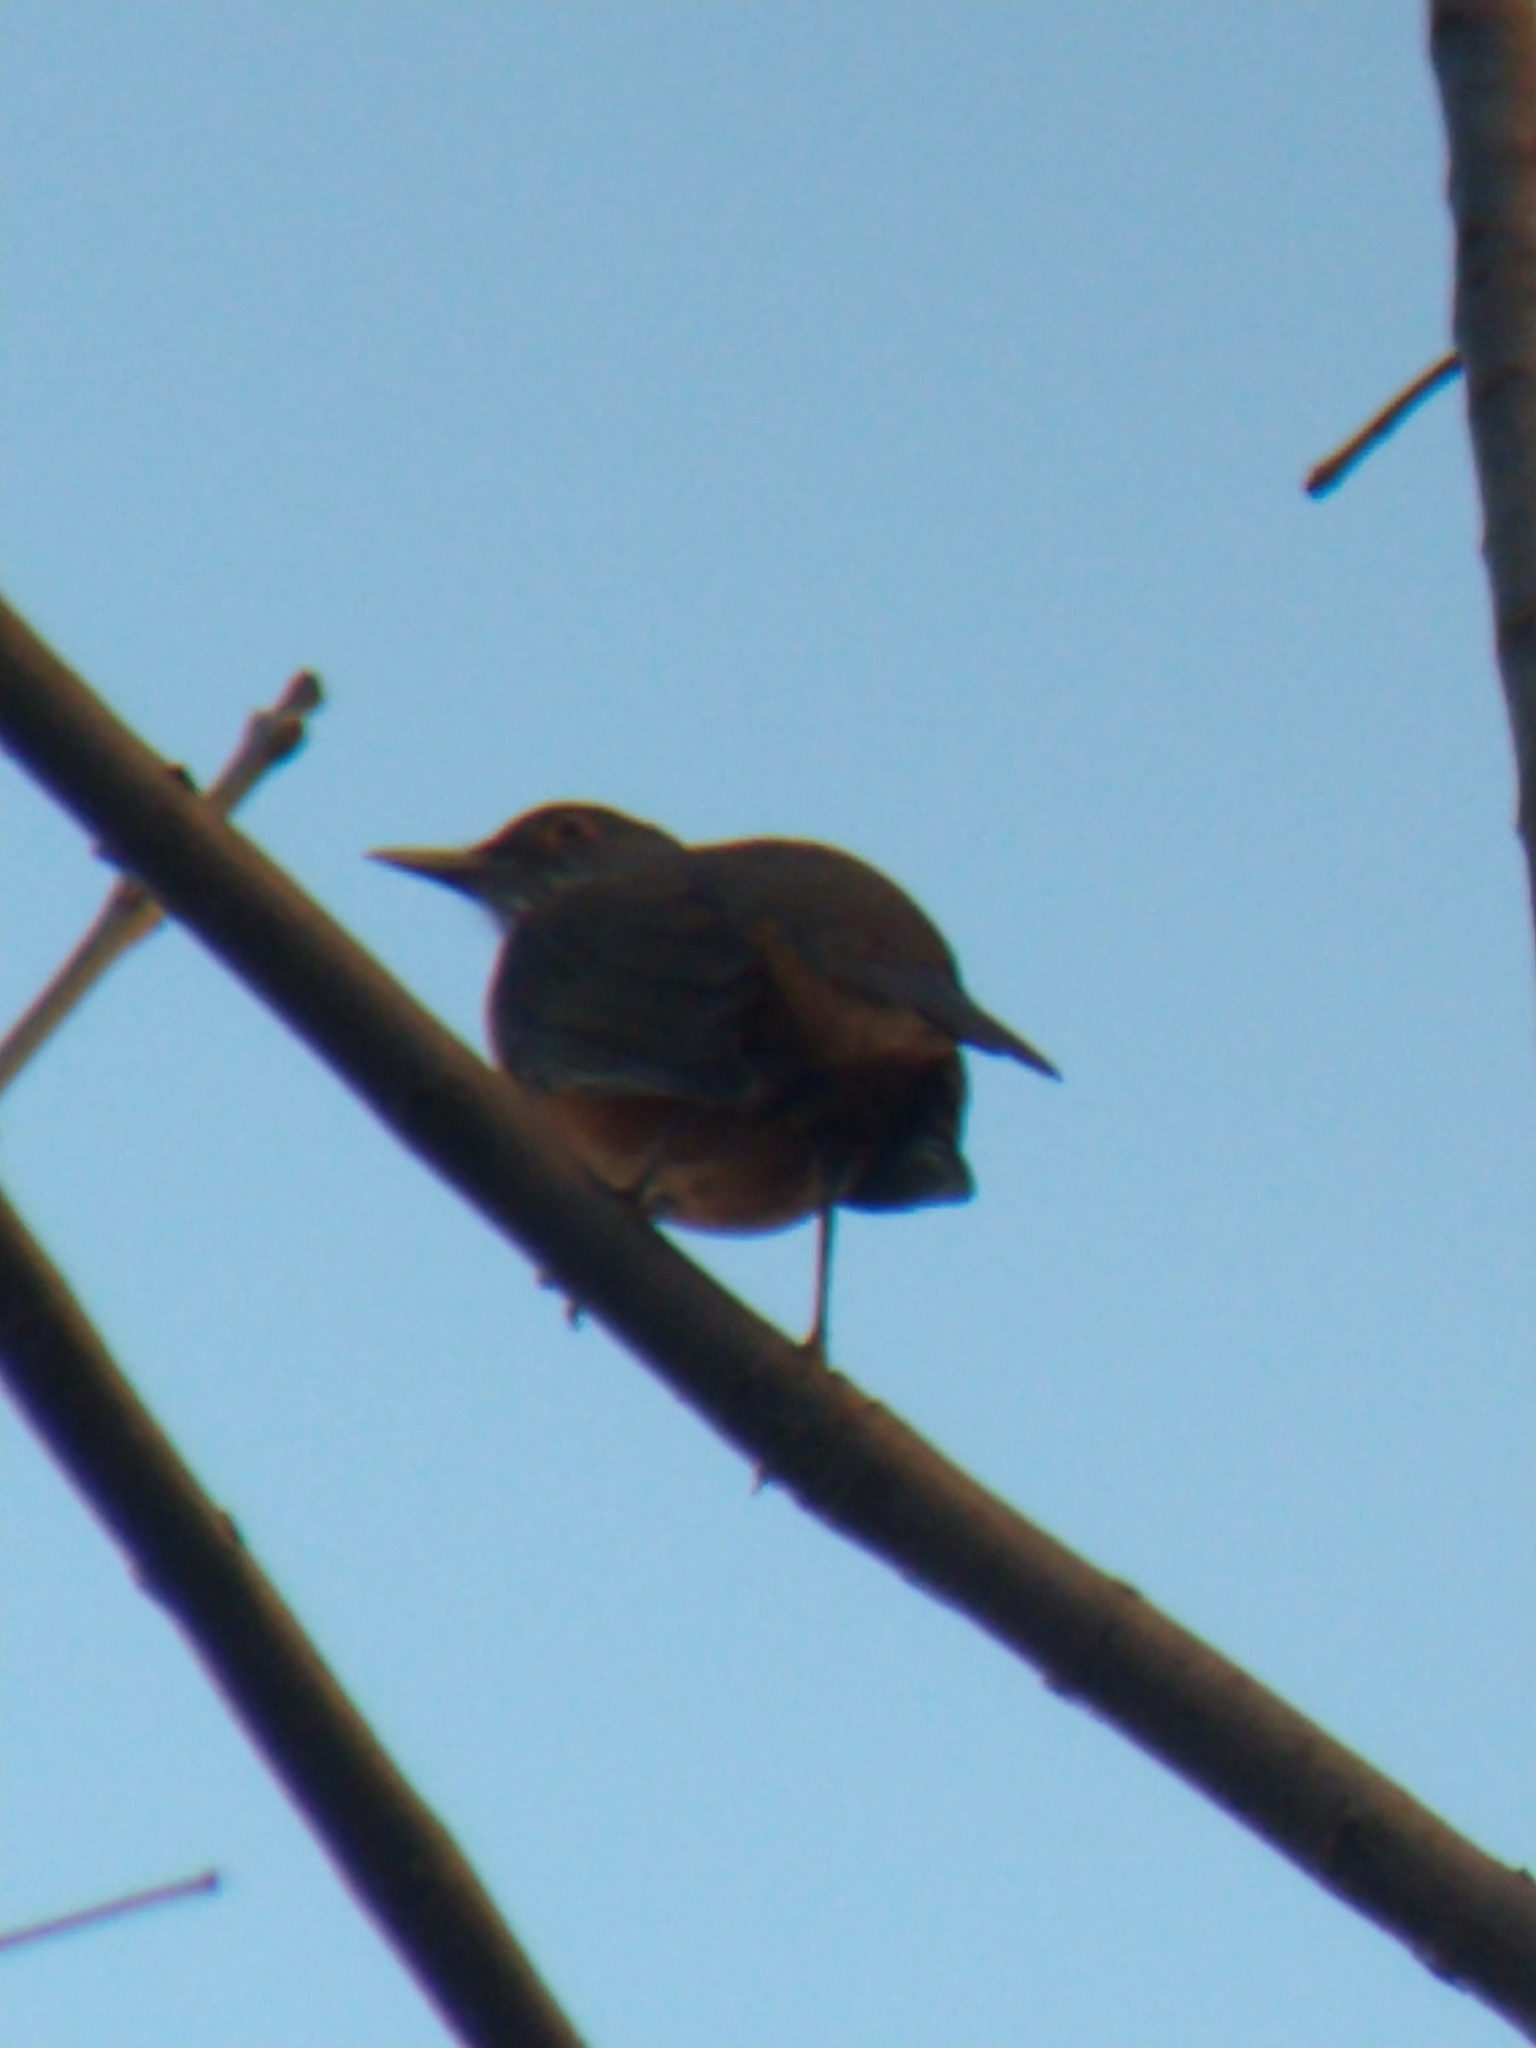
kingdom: Animalia
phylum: Chordata
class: Aves
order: Passeriformes
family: Turdidae
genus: Turdus
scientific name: Turdus rufiventris
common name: Rufous-bellied thrush
